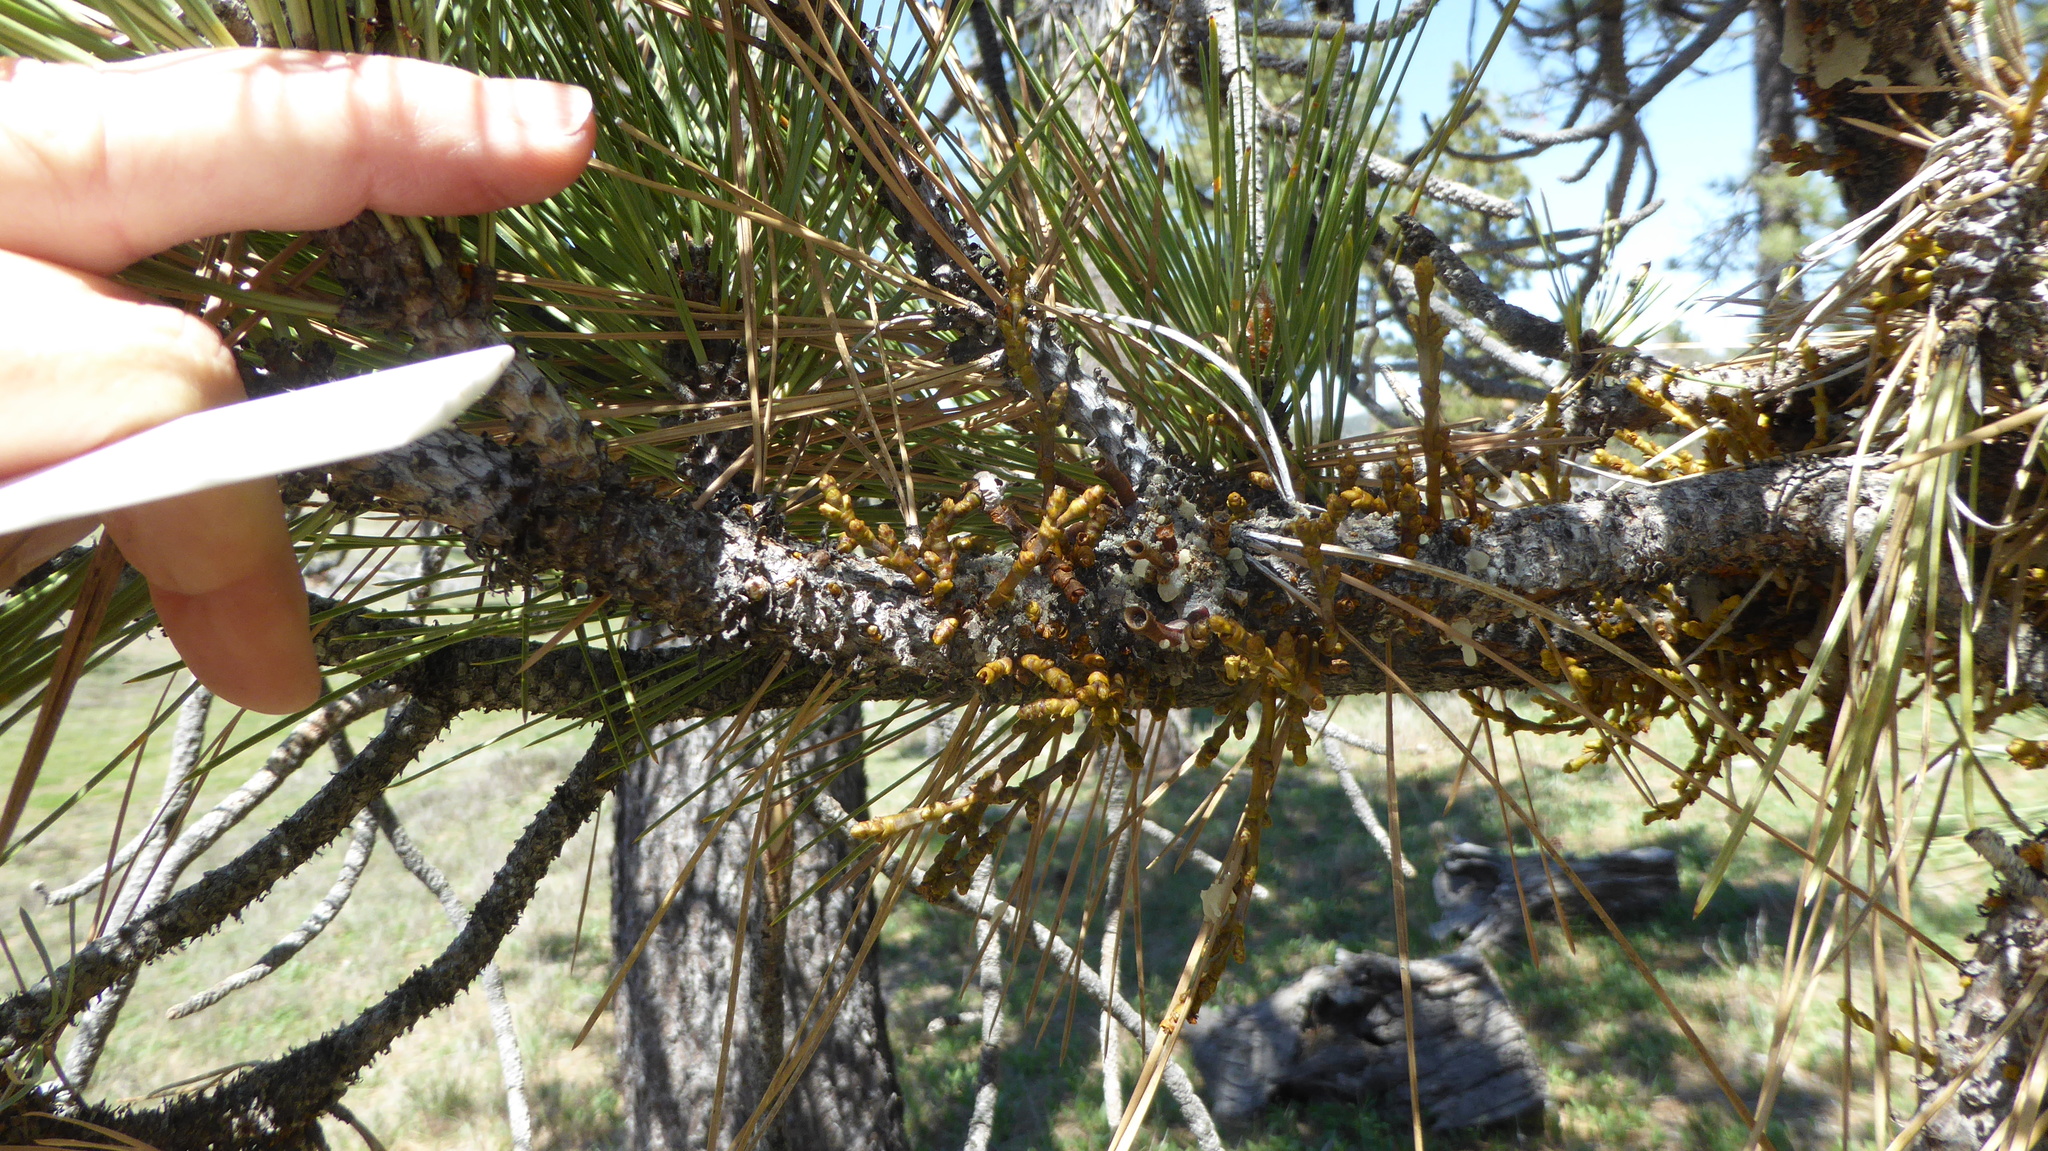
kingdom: Plantae
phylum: Tracheophyta
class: Magnoliopsida
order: Santalales
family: Viscaceae
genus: Arceuthobium
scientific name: Arceuthobium campylopodum
